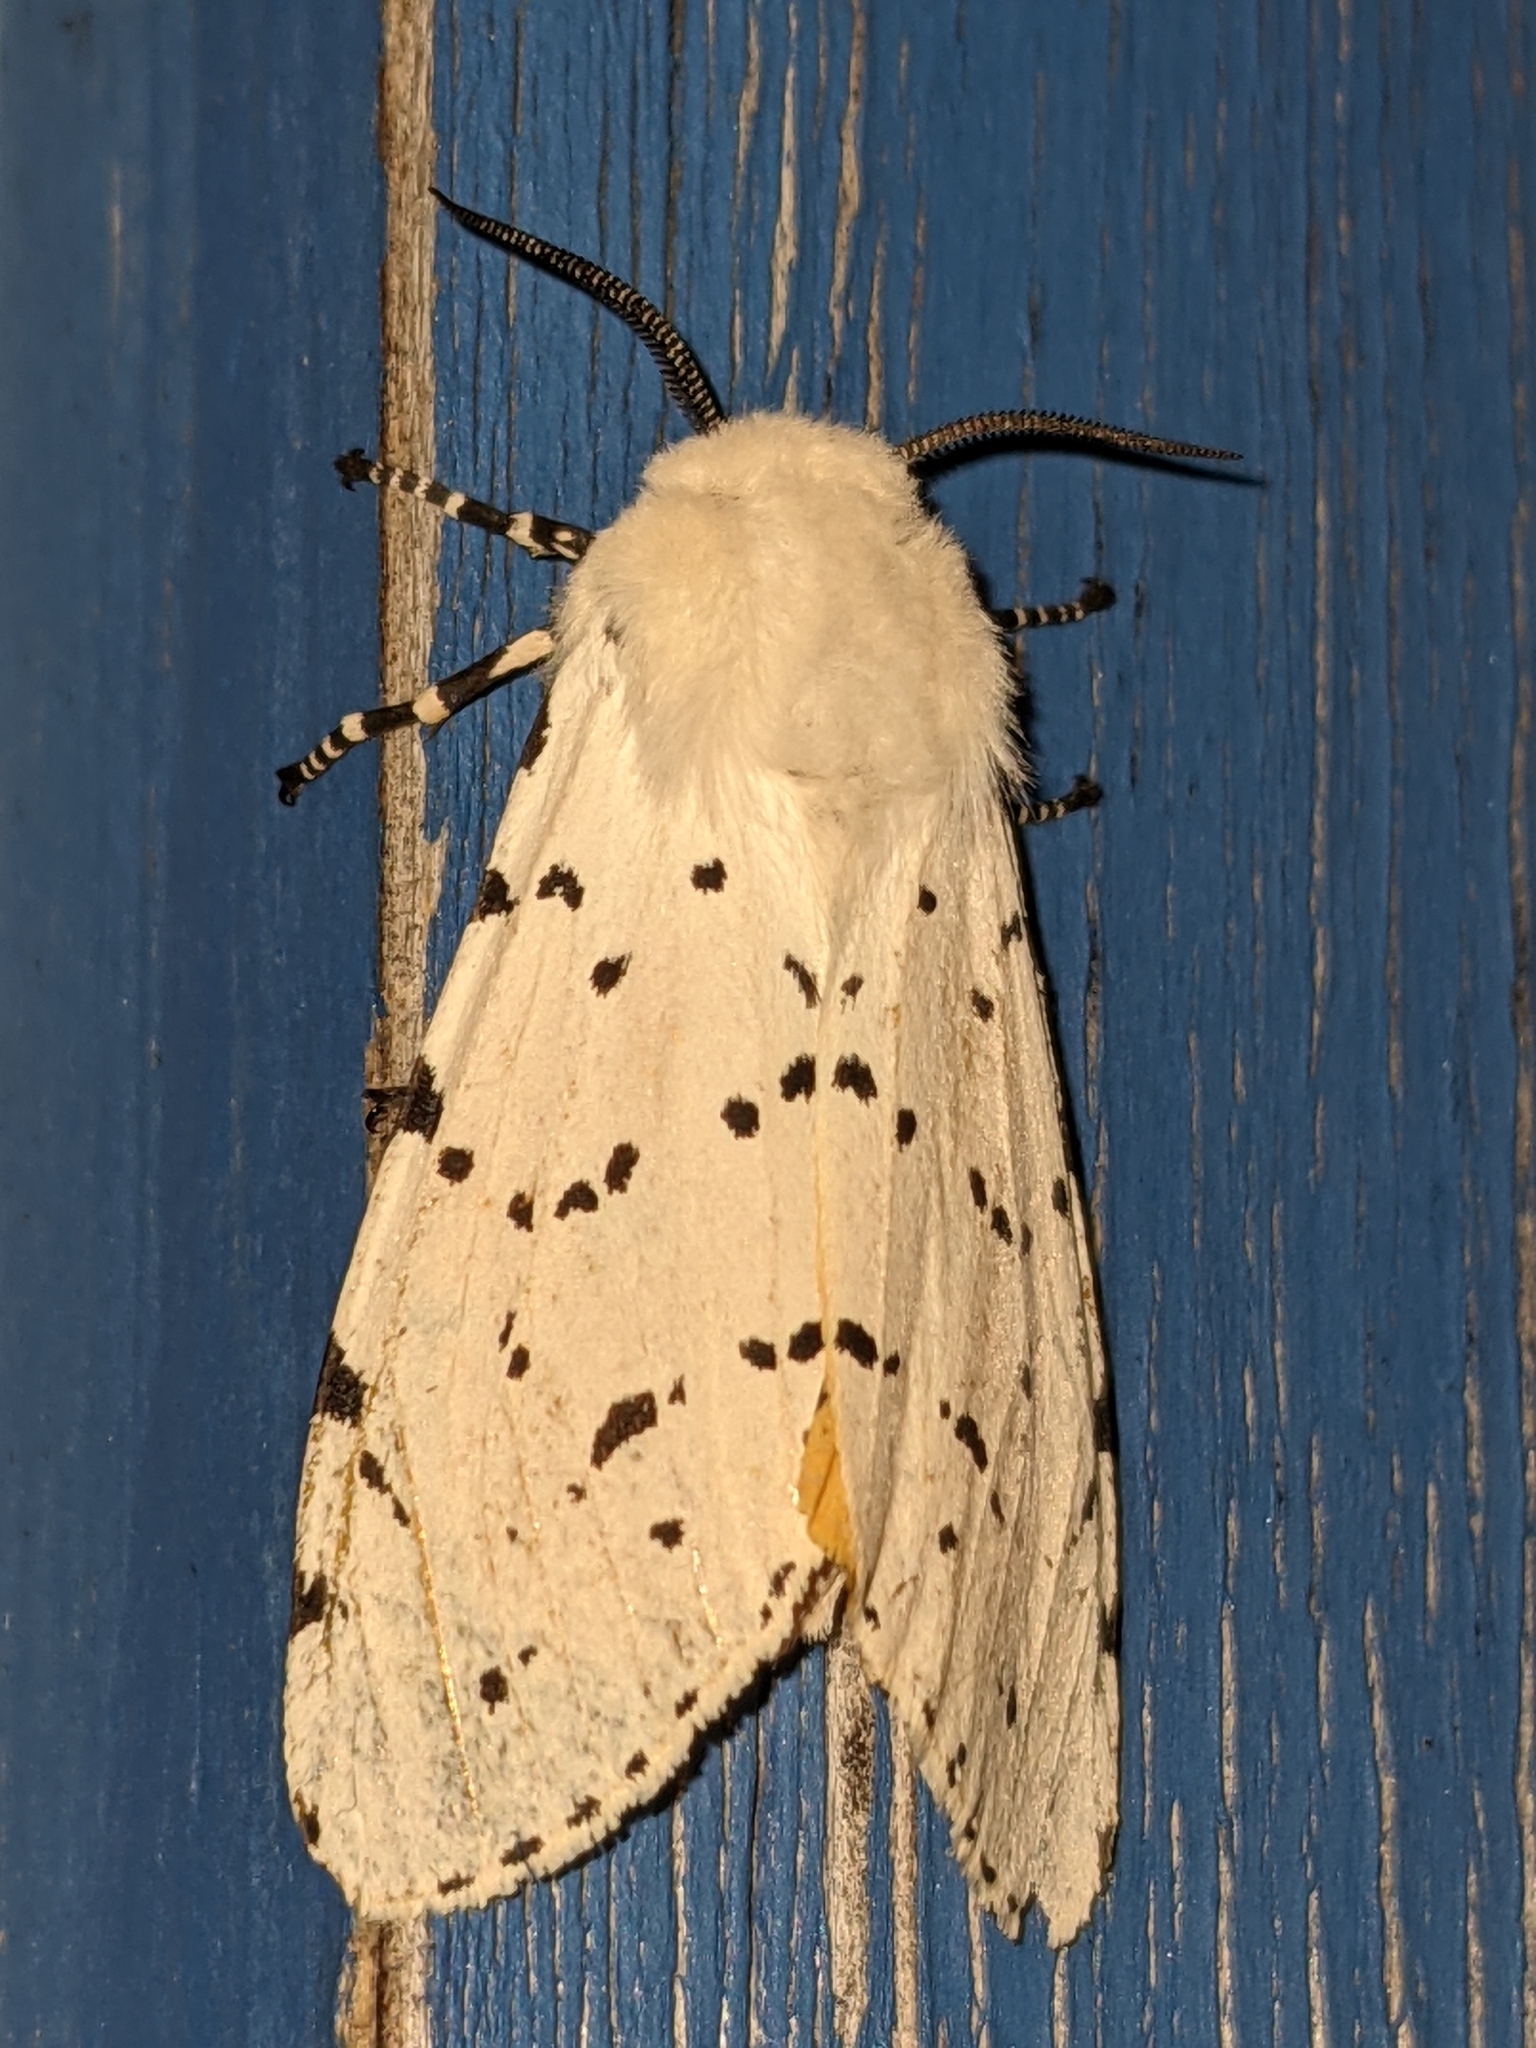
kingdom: Animalia
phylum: Arthropoda
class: Insecta
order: Lepidoptera
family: Erebidae
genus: Estigmene
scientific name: Estigmene acrea
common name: Salt marsh moth
